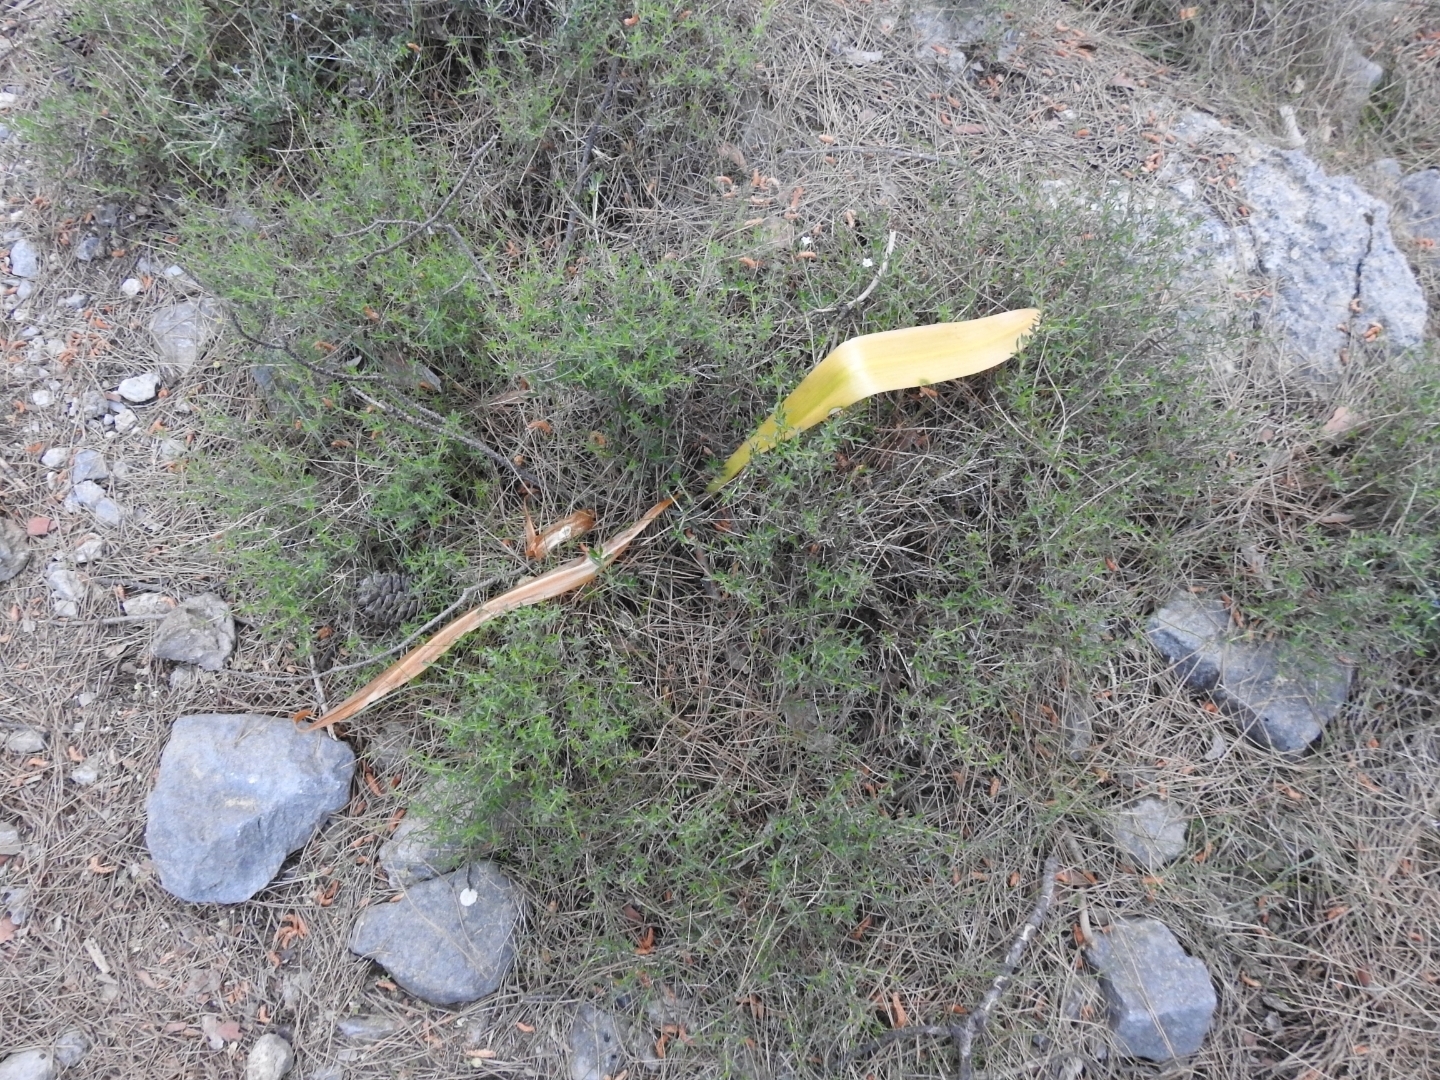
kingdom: Plantae
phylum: Tracheophyta
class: Magnoliopsida
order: Boraginales
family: Boraginaceae
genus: Lithodora
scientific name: Lithodora hispidula
